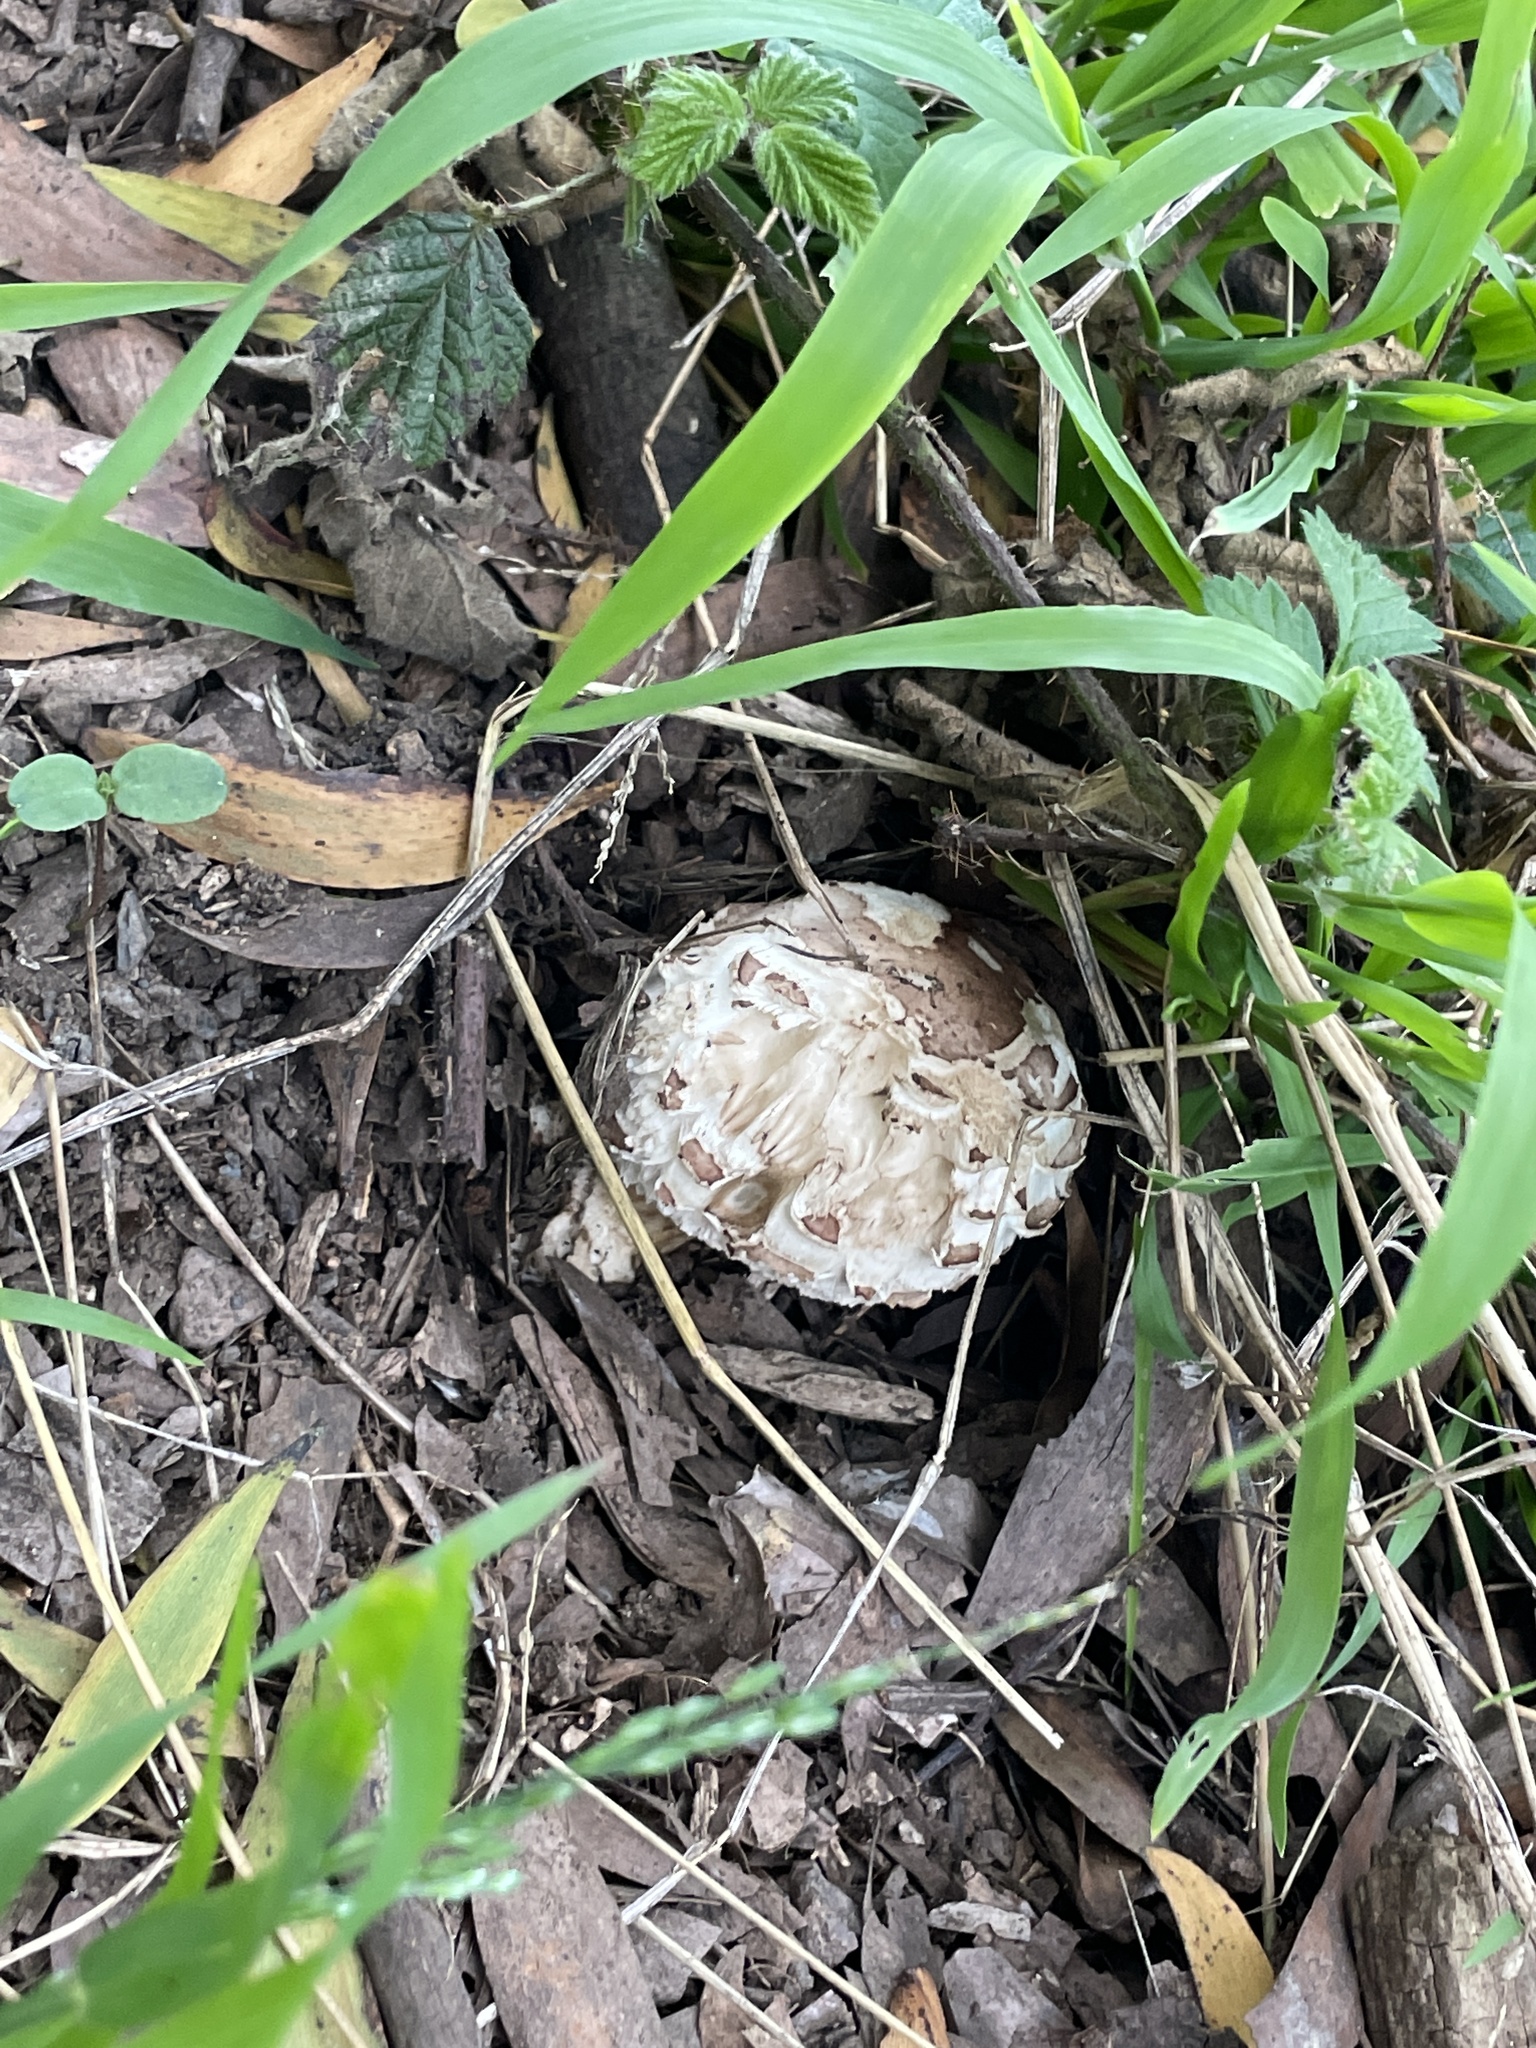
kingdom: Fungi
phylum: Basidiomycota
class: Agaricomycetes
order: Agaricales
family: Agaricaceae
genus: Chlorophyllum
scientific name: Chlorophyllum brunneum
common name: Brown parasol
